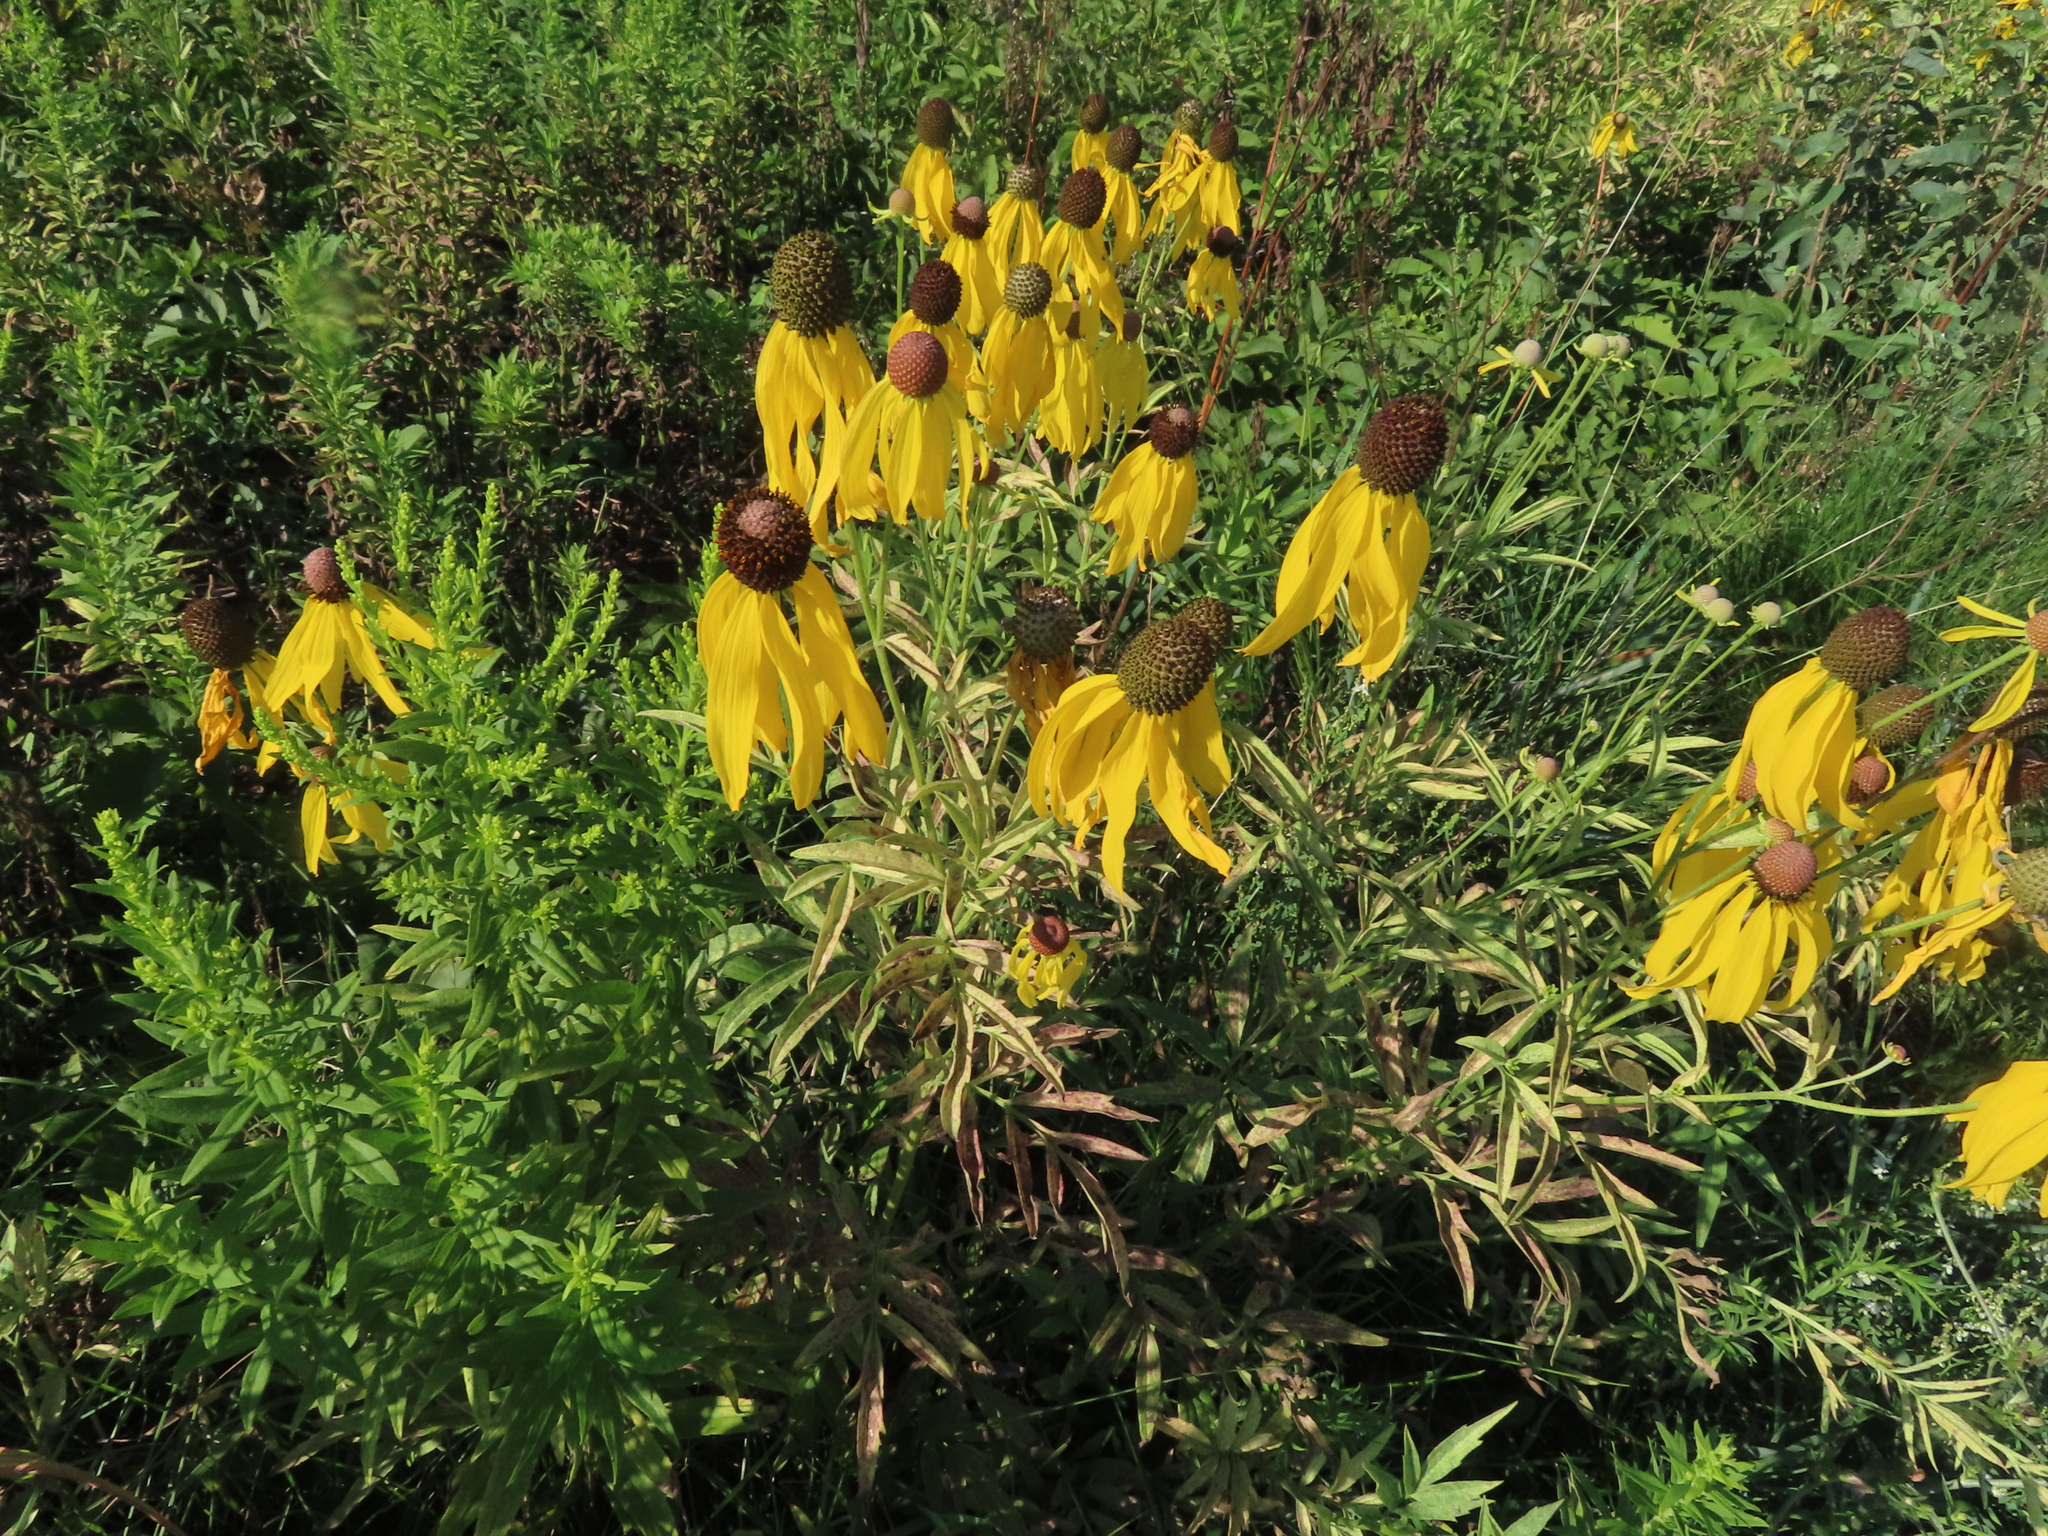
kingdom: Plantae
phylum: Tracheophyta
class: Magnoliopsida
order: Asterales
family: Asteraceae
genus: Ratibida
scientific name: Ratibida pinnata
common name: Drooping prairie-coneflower
